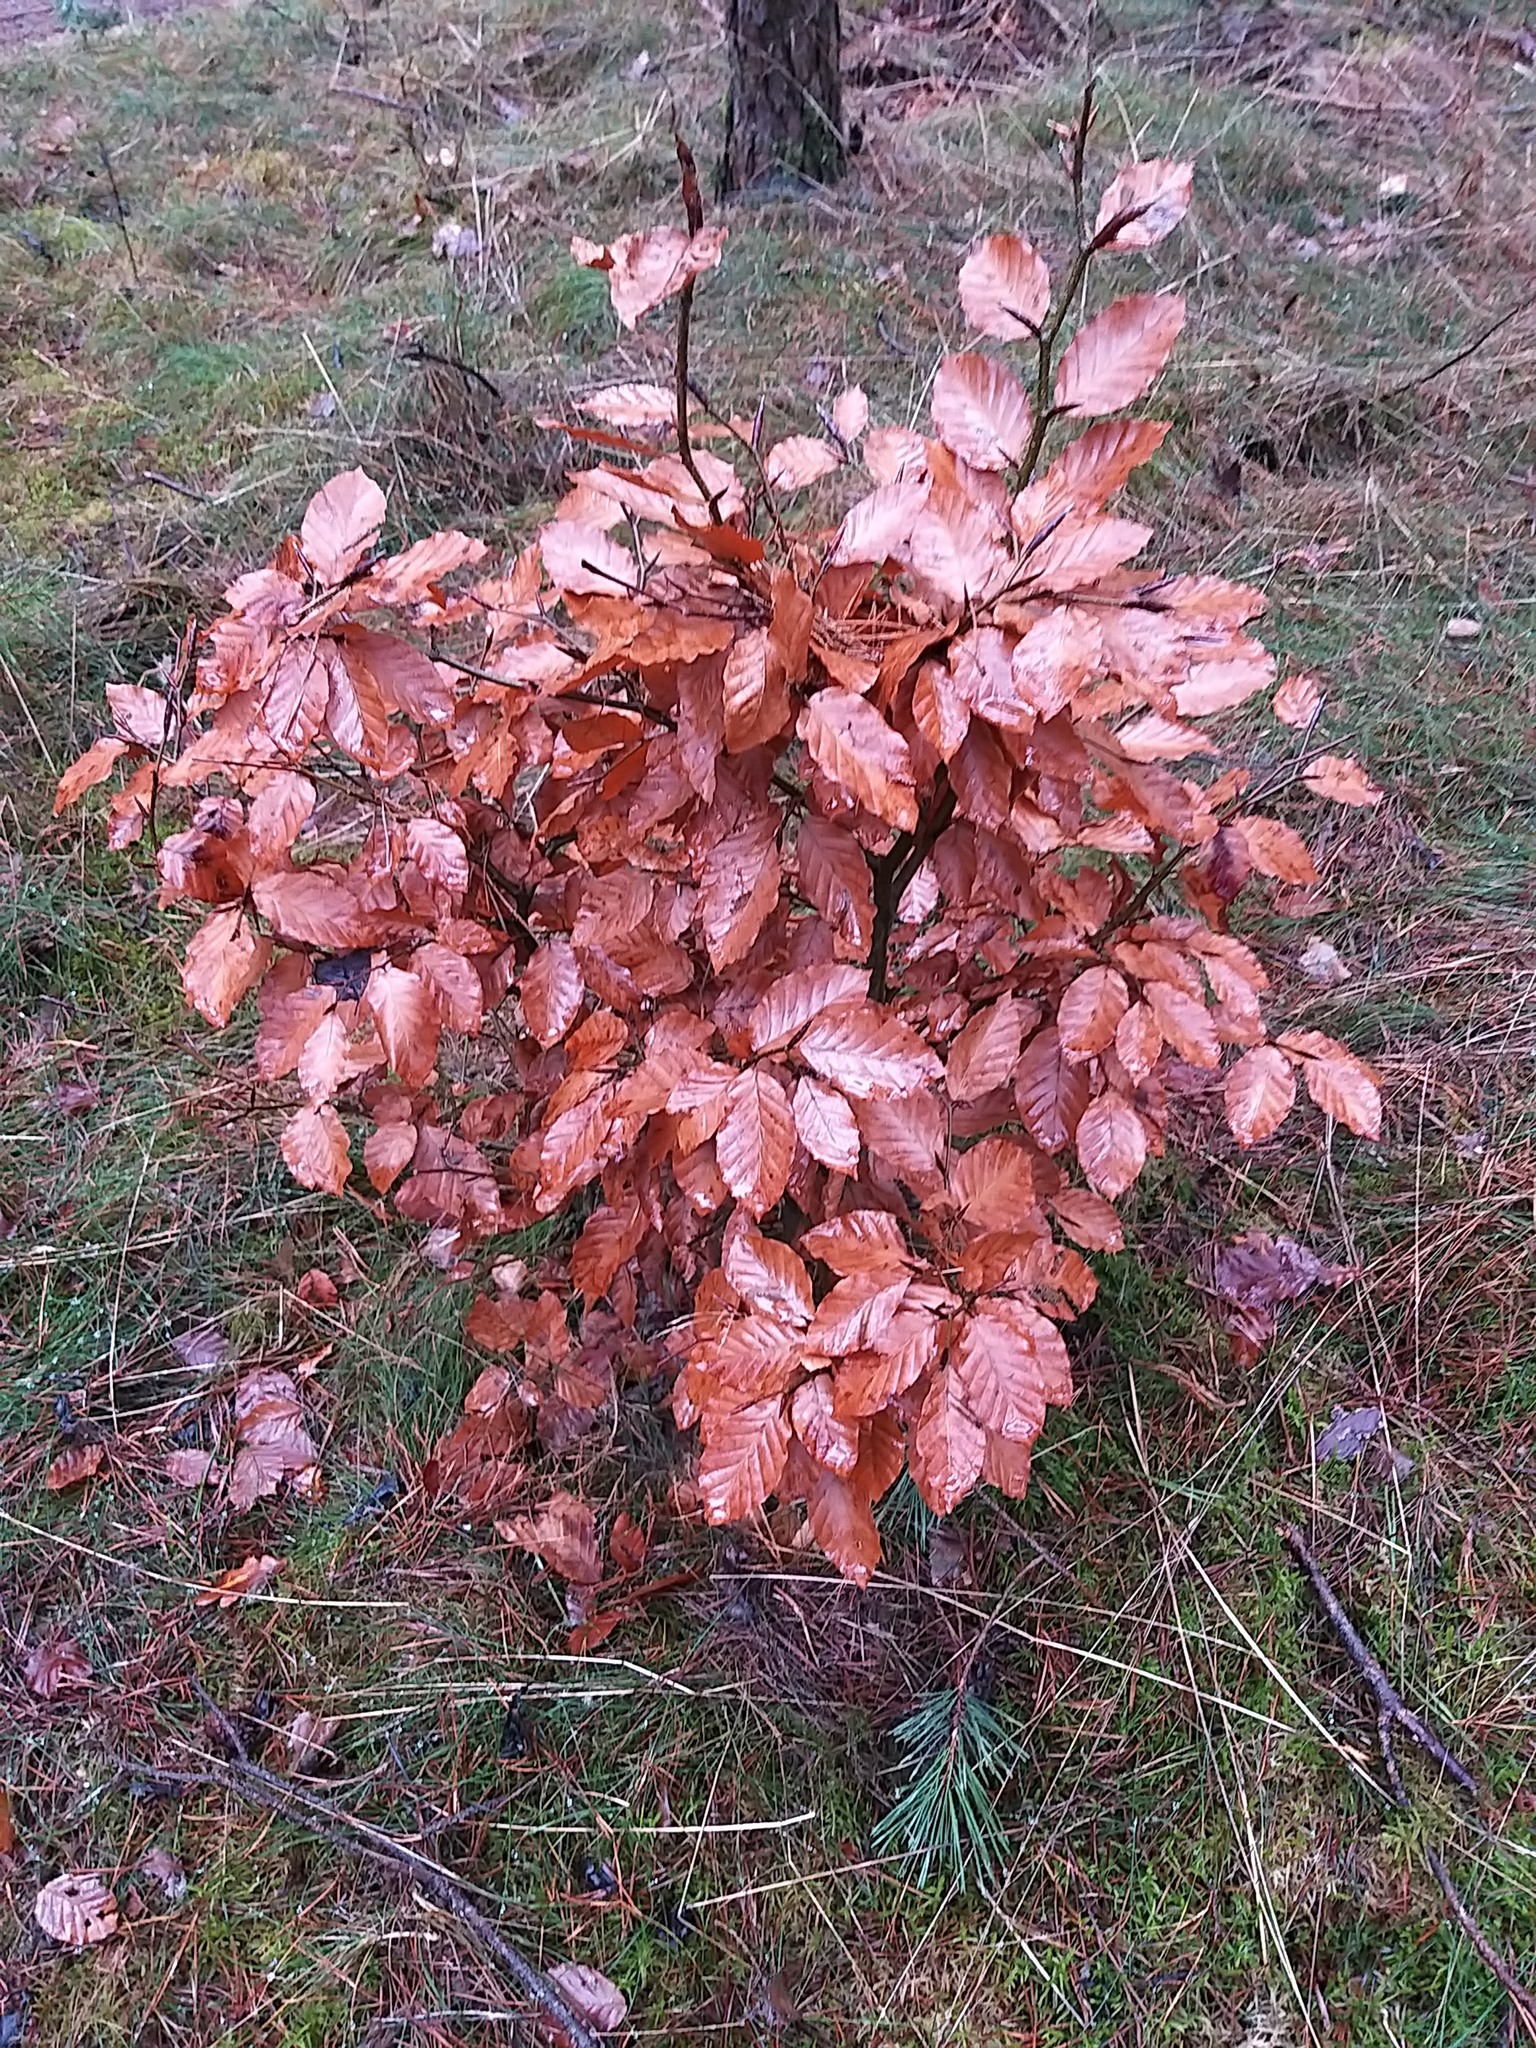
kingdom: Plantae
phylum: Tracheophyta
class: Magnoliopsida
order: Fagales
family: Fagaceae
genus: Fagus
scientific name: Fagus sylvatica
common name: Beech
